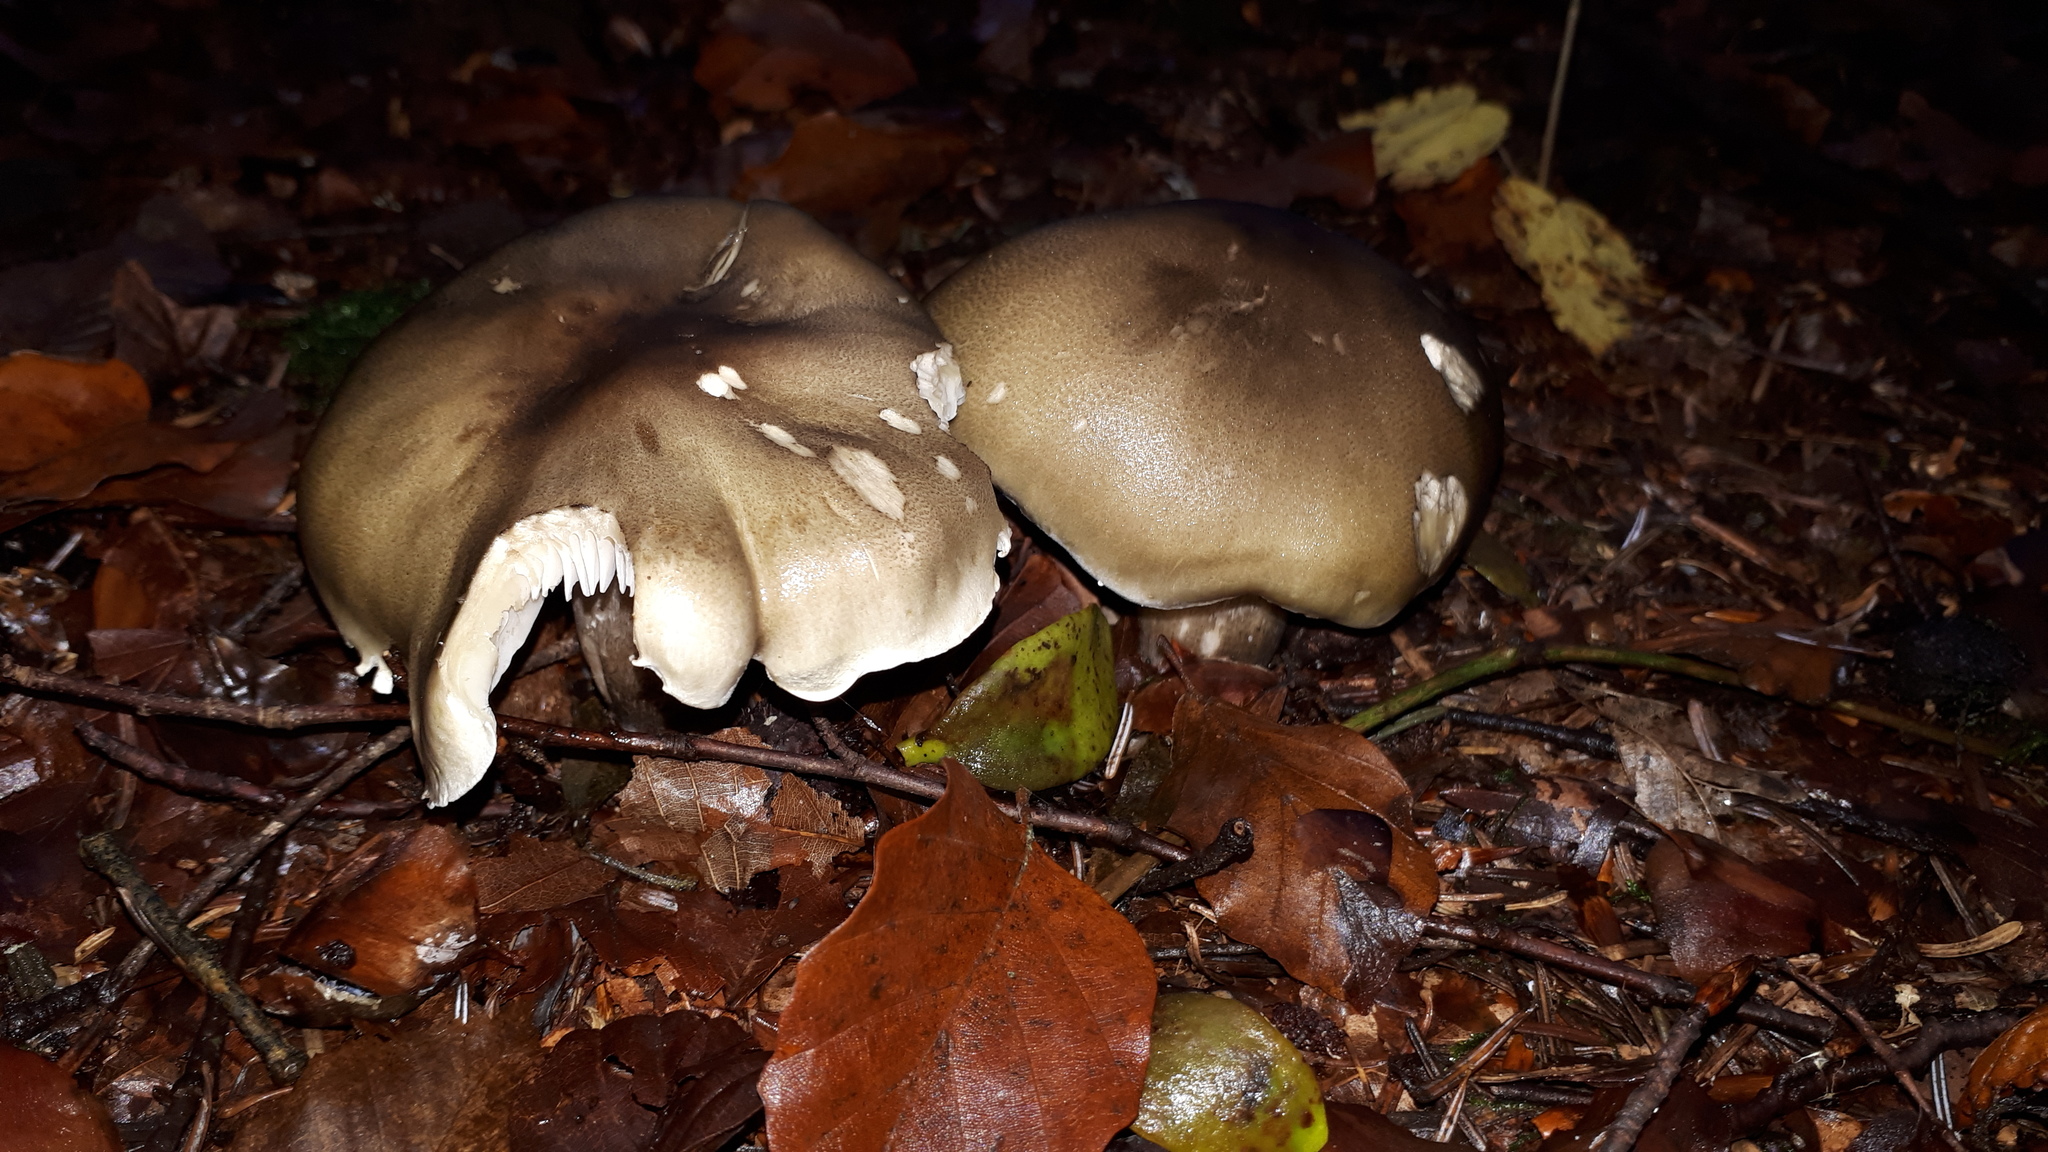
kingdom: Fungi
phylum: Basidiomycota
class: Agaricomycetes
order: Agaricales
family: Tricholomataceae
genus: Tricholoma
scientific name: Tricholoma saponaceum
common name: Soapy trich
